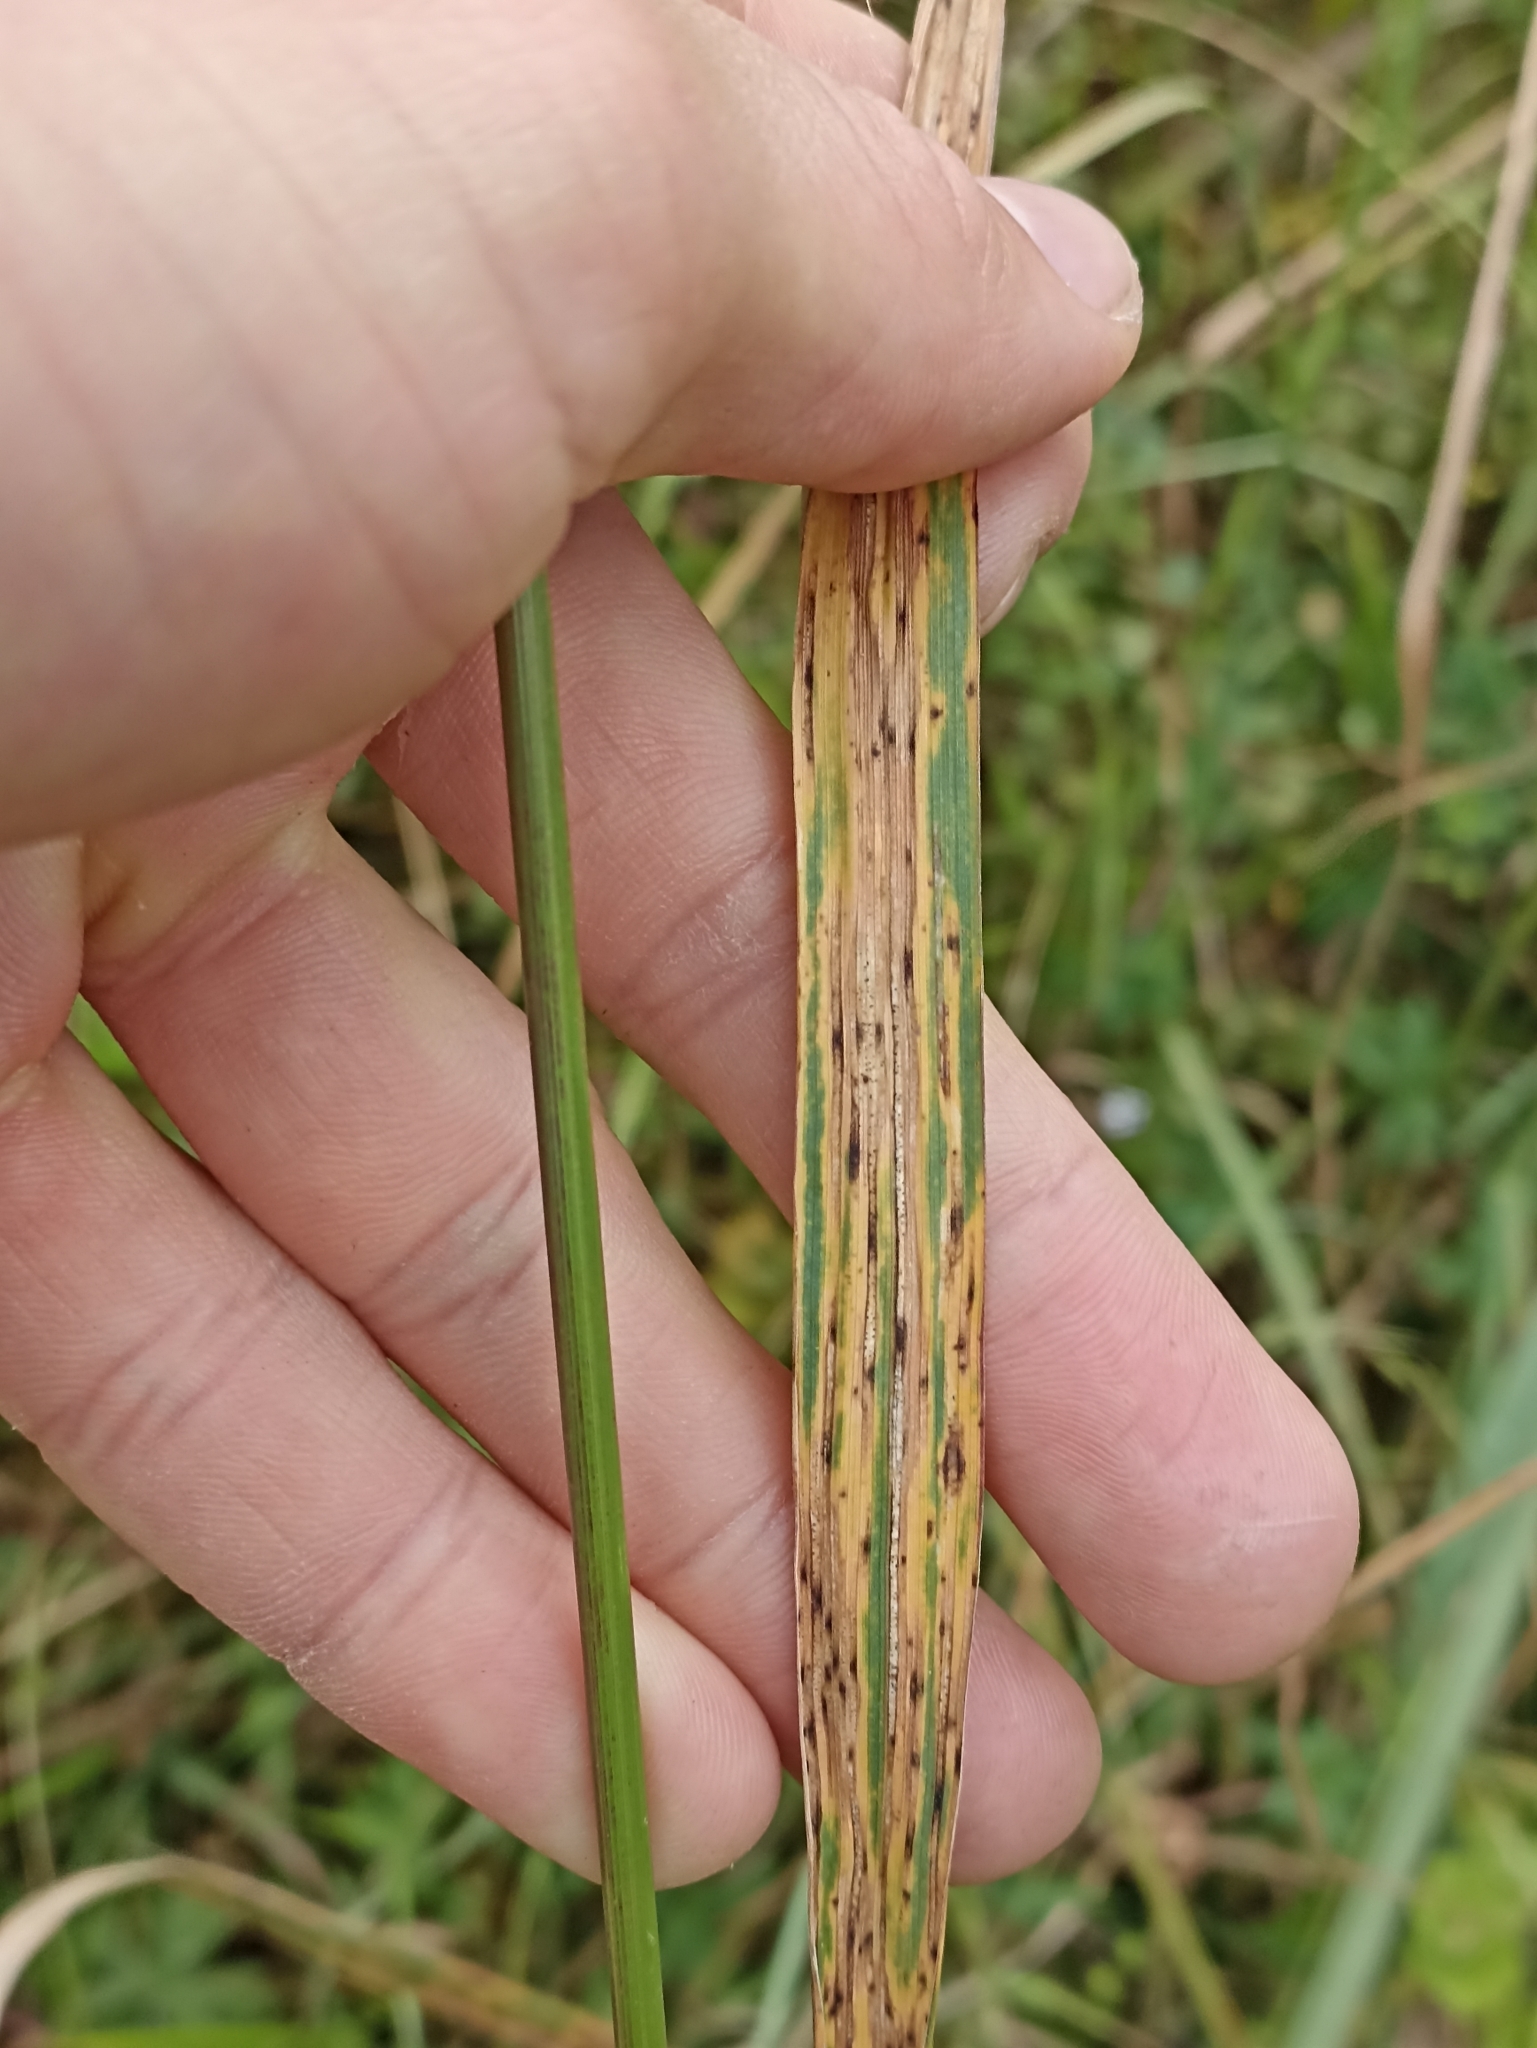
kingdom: Plantae
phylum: Tracheophyta
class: Liliopsida
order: Poales
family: Poaceae
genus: Bromus
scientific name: Bromus catharticus
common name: Rescuegrass
